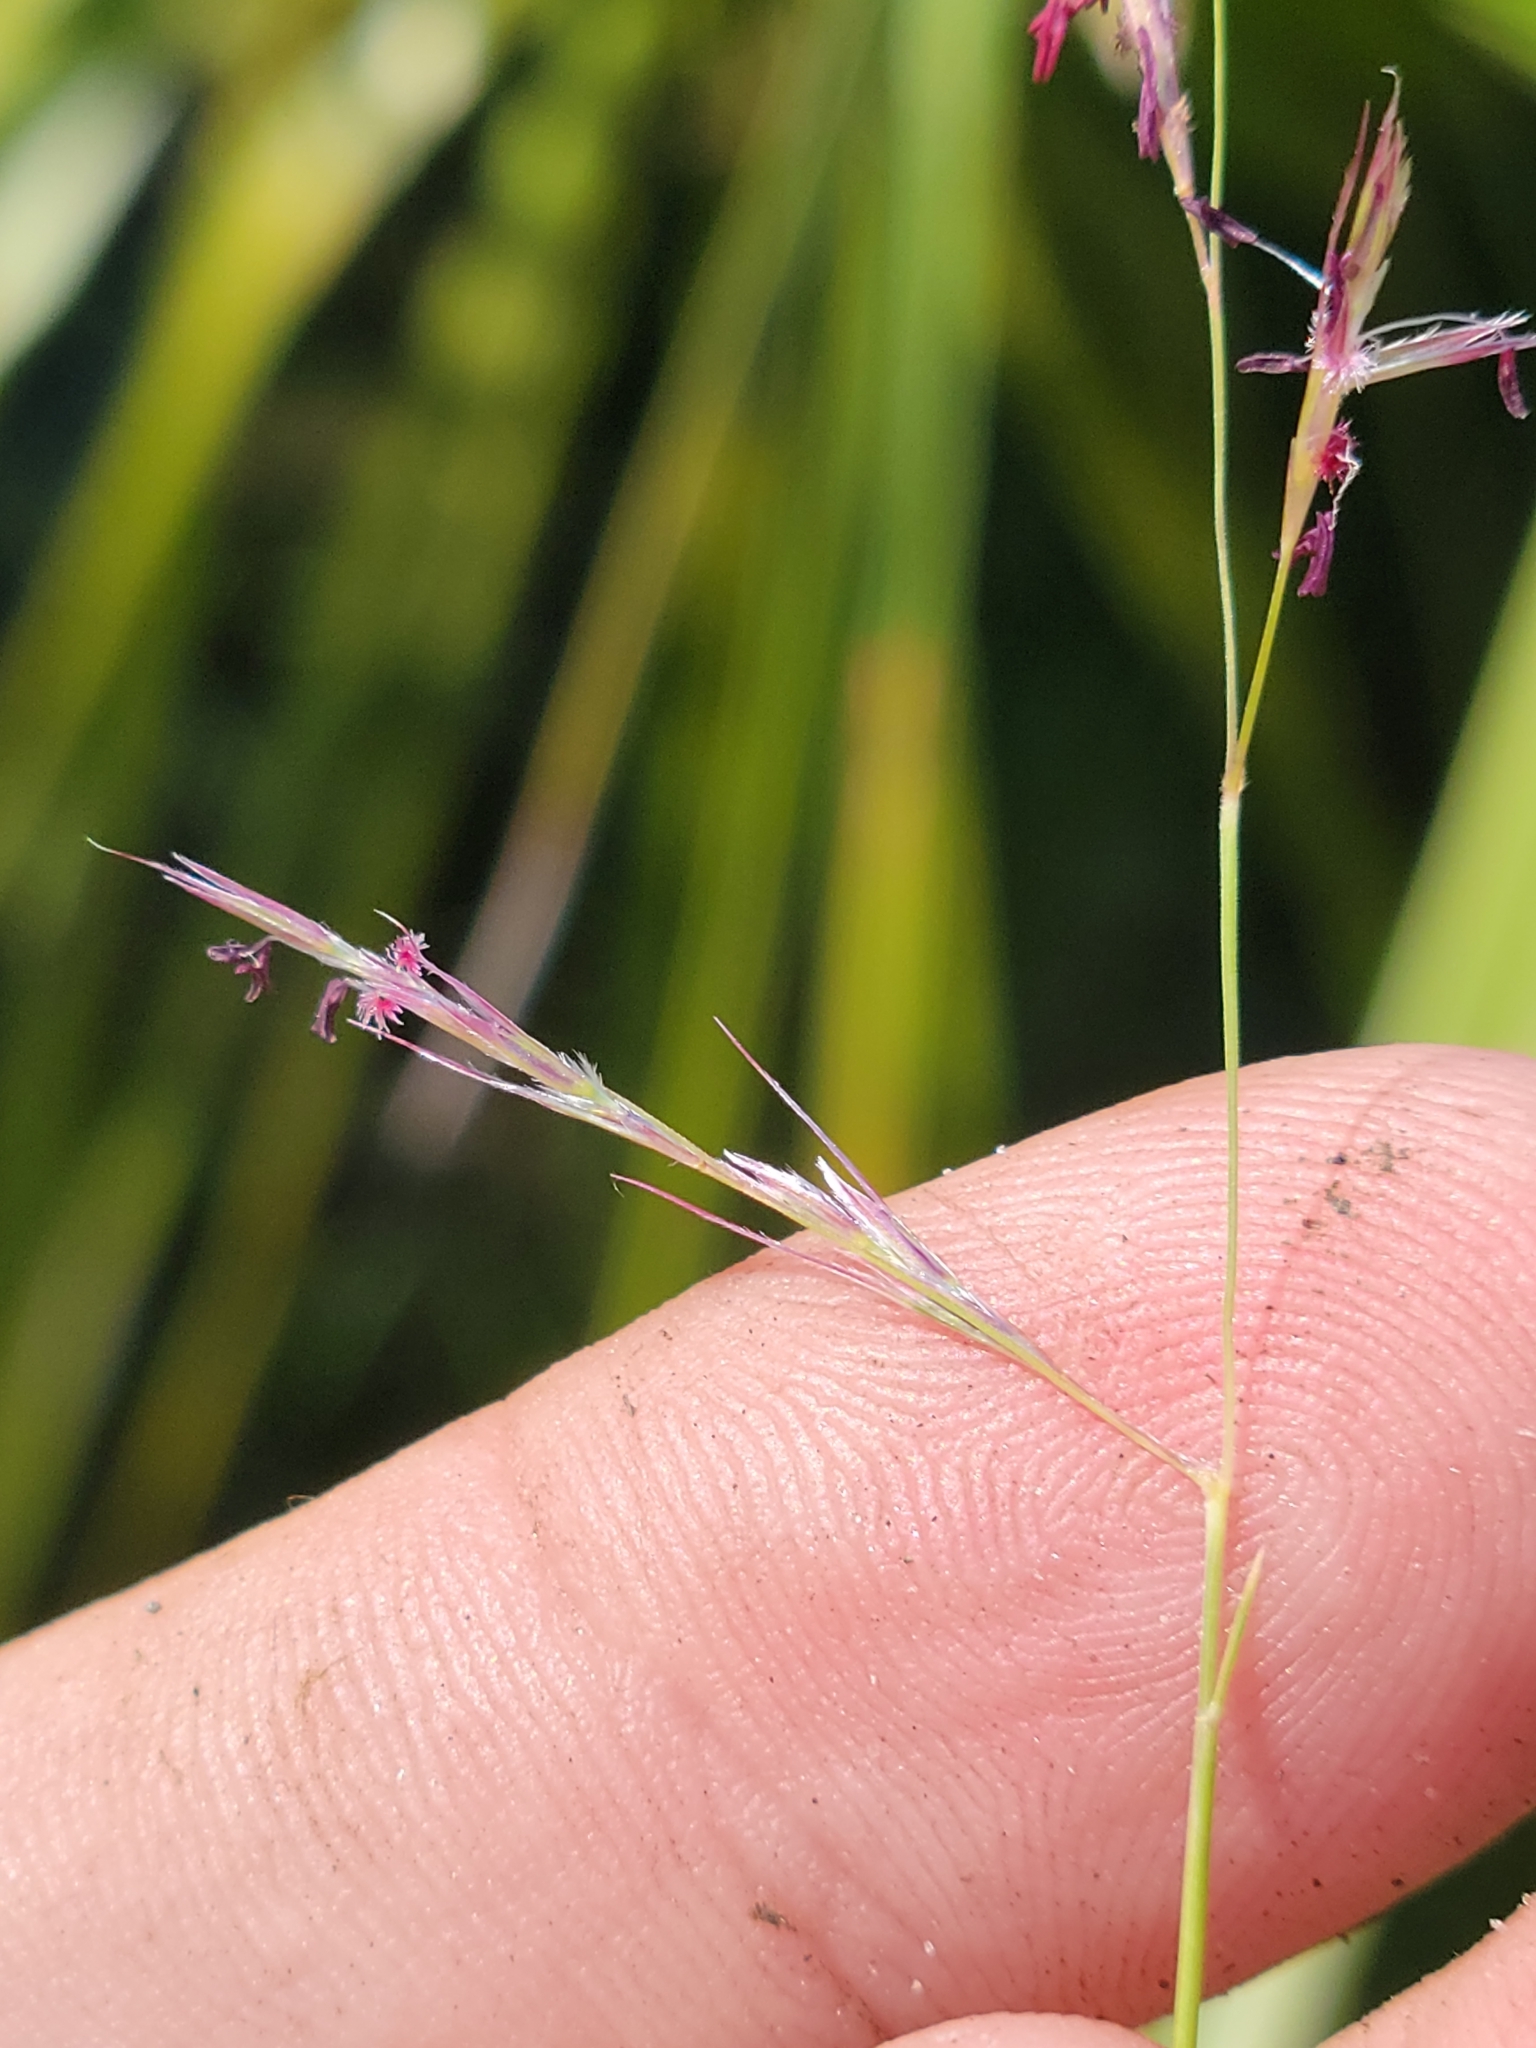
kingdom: Plantae
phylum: Tracheophyta
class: Liliopsida
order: Poales
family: Poaceae
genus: Triplasis
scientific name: Triplasis americana
